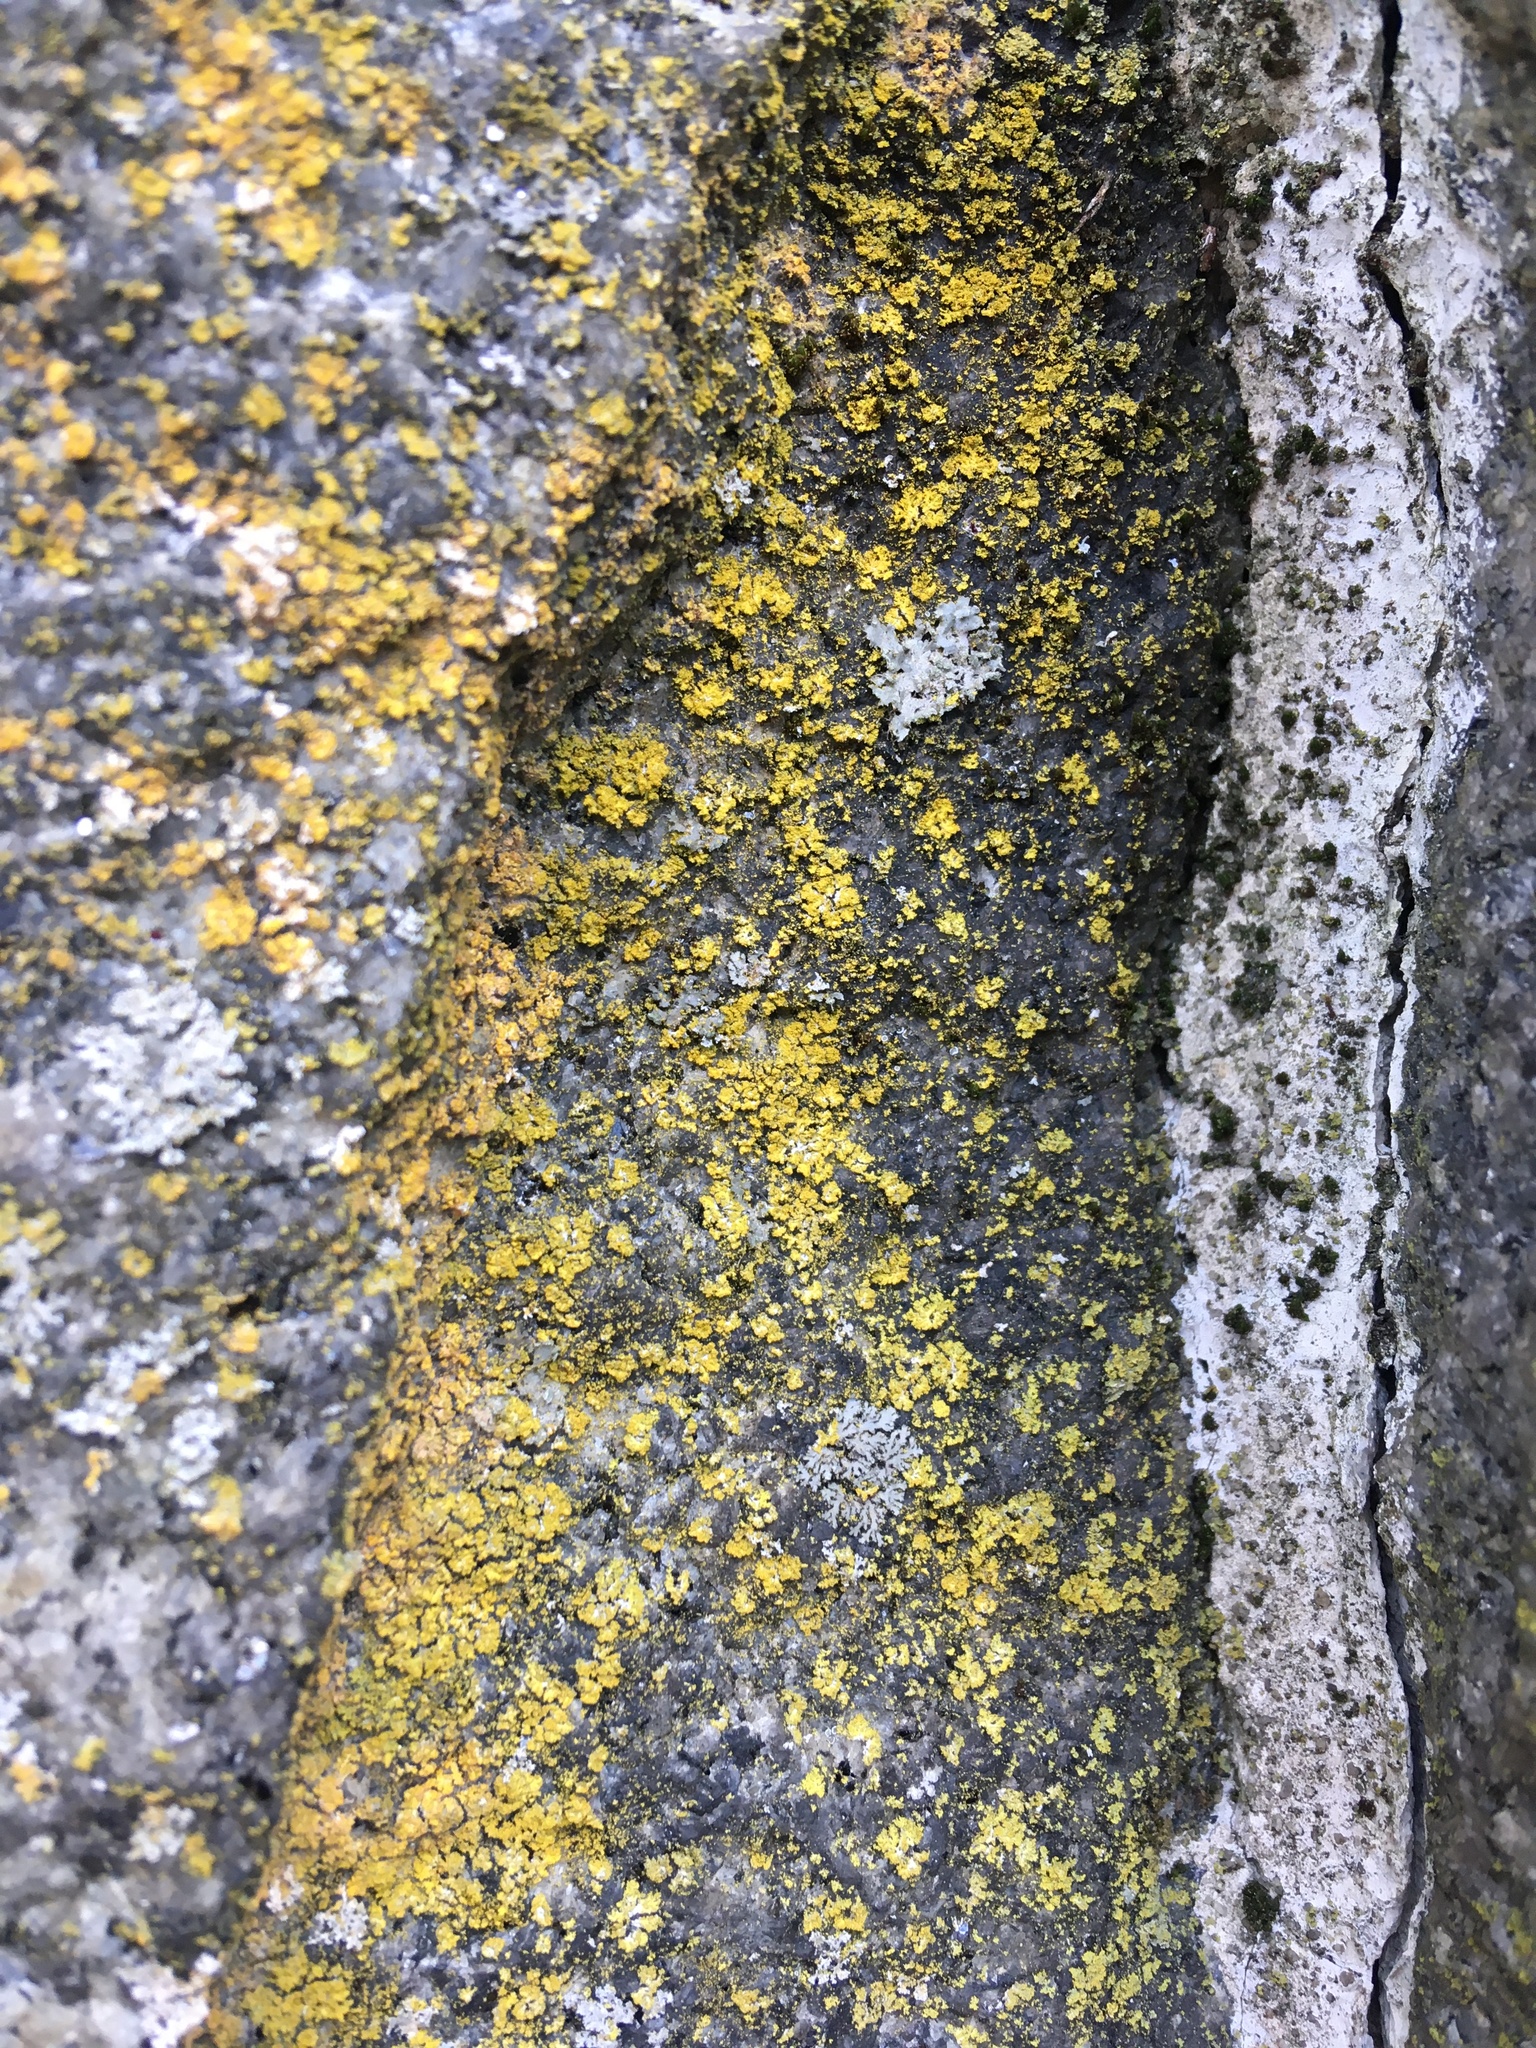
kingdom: Fungi
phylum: Ascomycota
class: Candelariomycetes
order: Candelariales
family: Candelariaceae
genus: Candelaria
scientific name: Candelaria concolor
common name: Candleflame lichen
